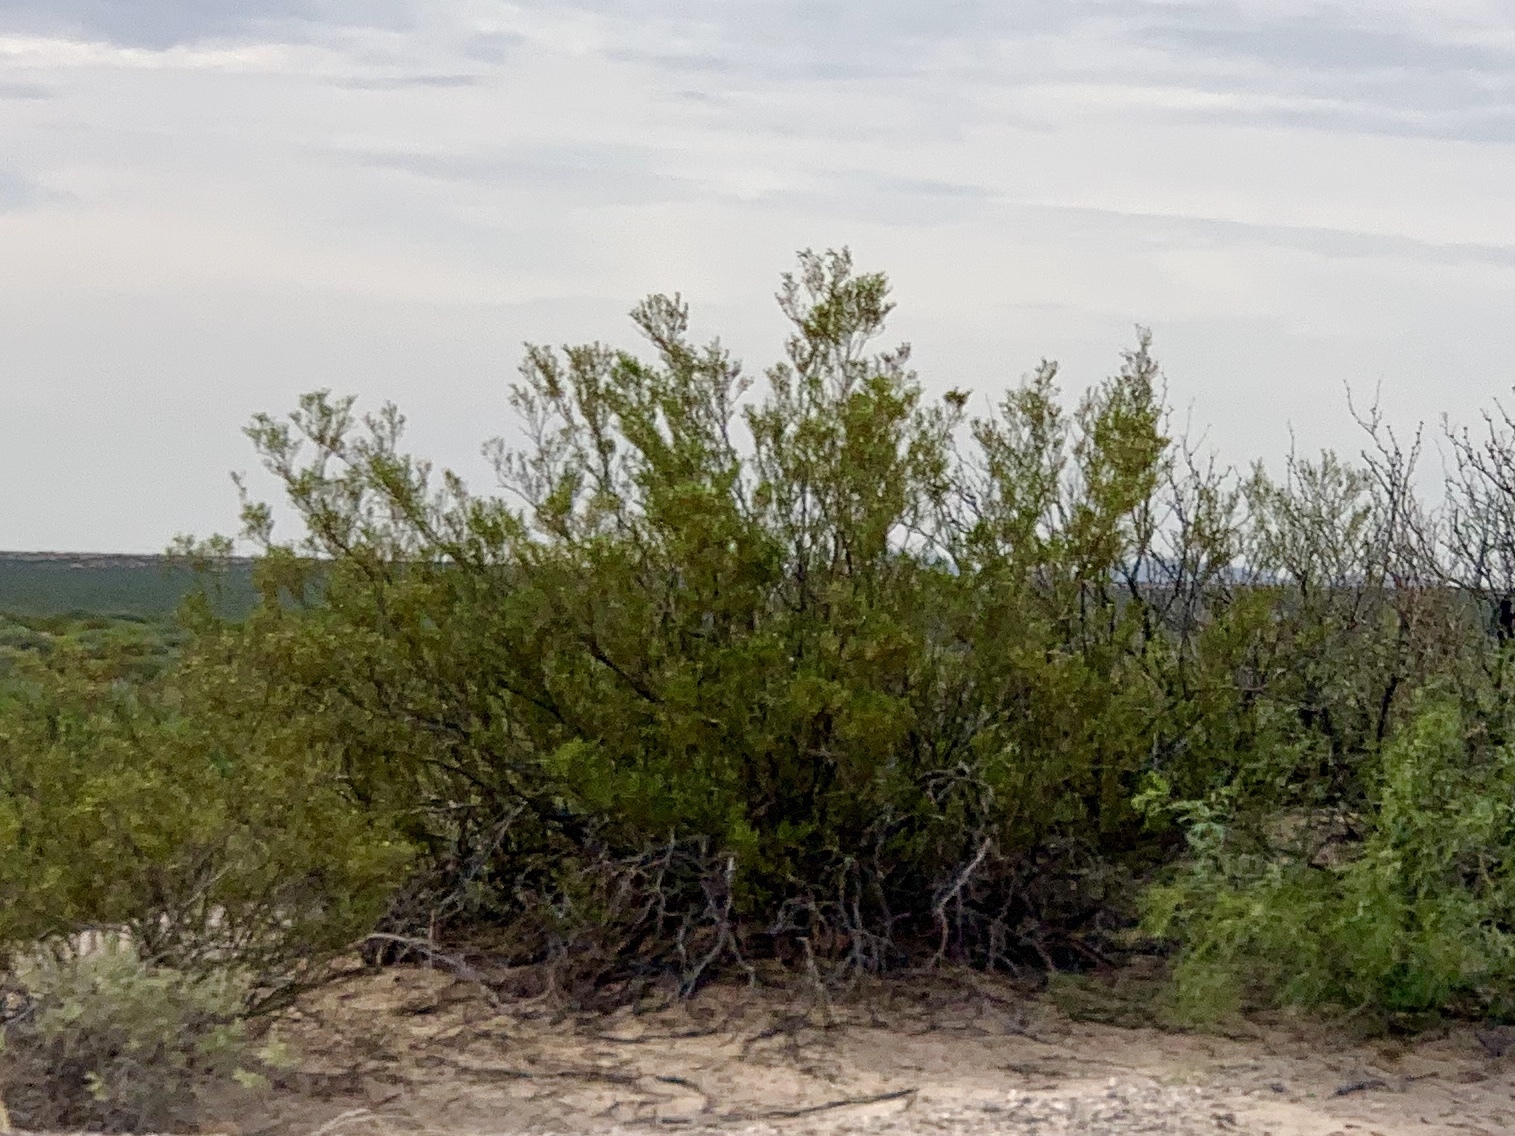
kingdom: Plantae
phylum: Tracheophyta
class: Magnoliopsida
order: Zygophyllales
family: Zygophyllaceae
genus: Larrea
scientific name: Larrea tridentata
